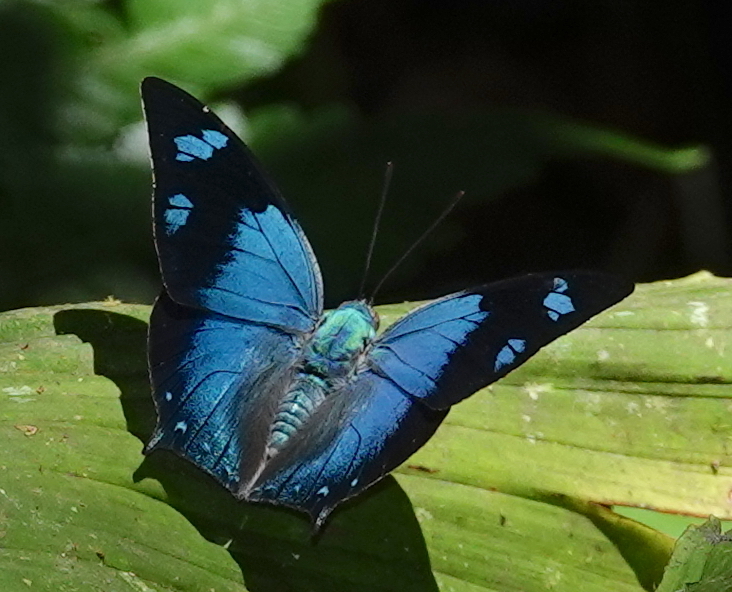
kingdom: Animalia
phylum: Arthropoda
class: Insecta
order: Lepidoptera
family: Nymphalidae
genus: Anaea
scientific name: Anaea glauce
